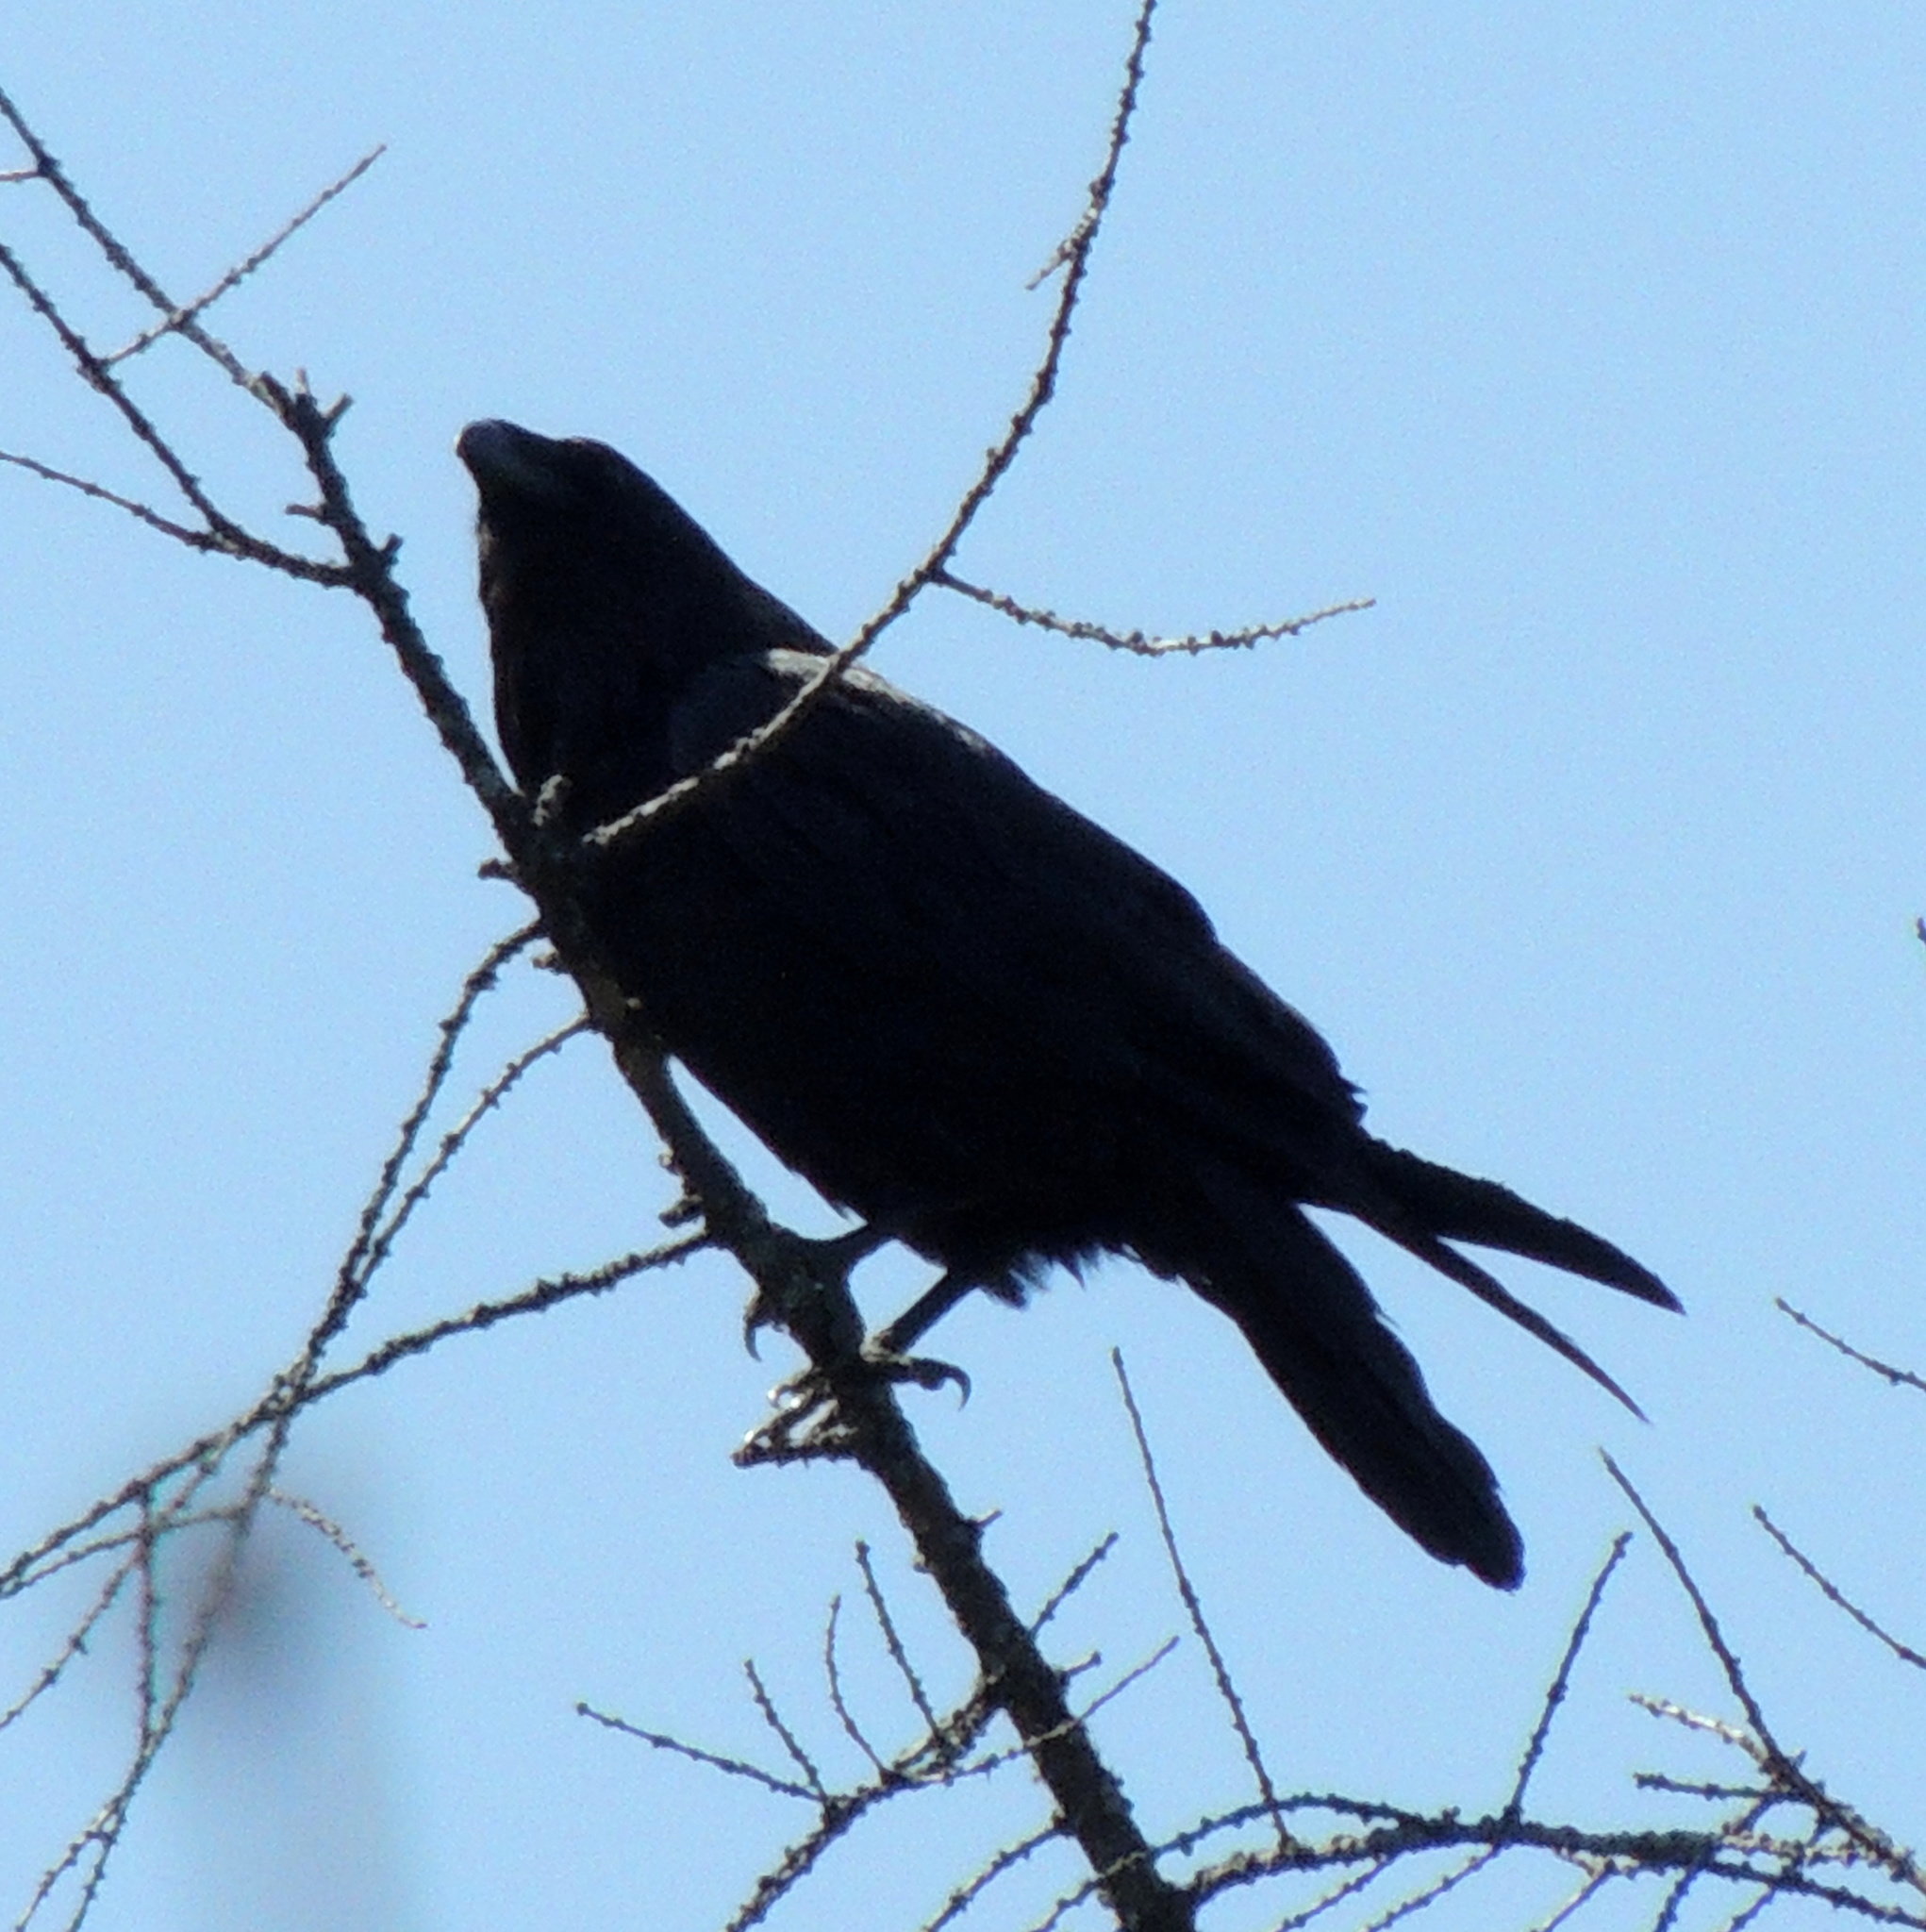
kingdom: Animalia
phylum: Chordata
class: Aves
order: Passeriformes
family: Corvidae
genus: Corvus
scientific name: Corvus corax
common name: Common raven
